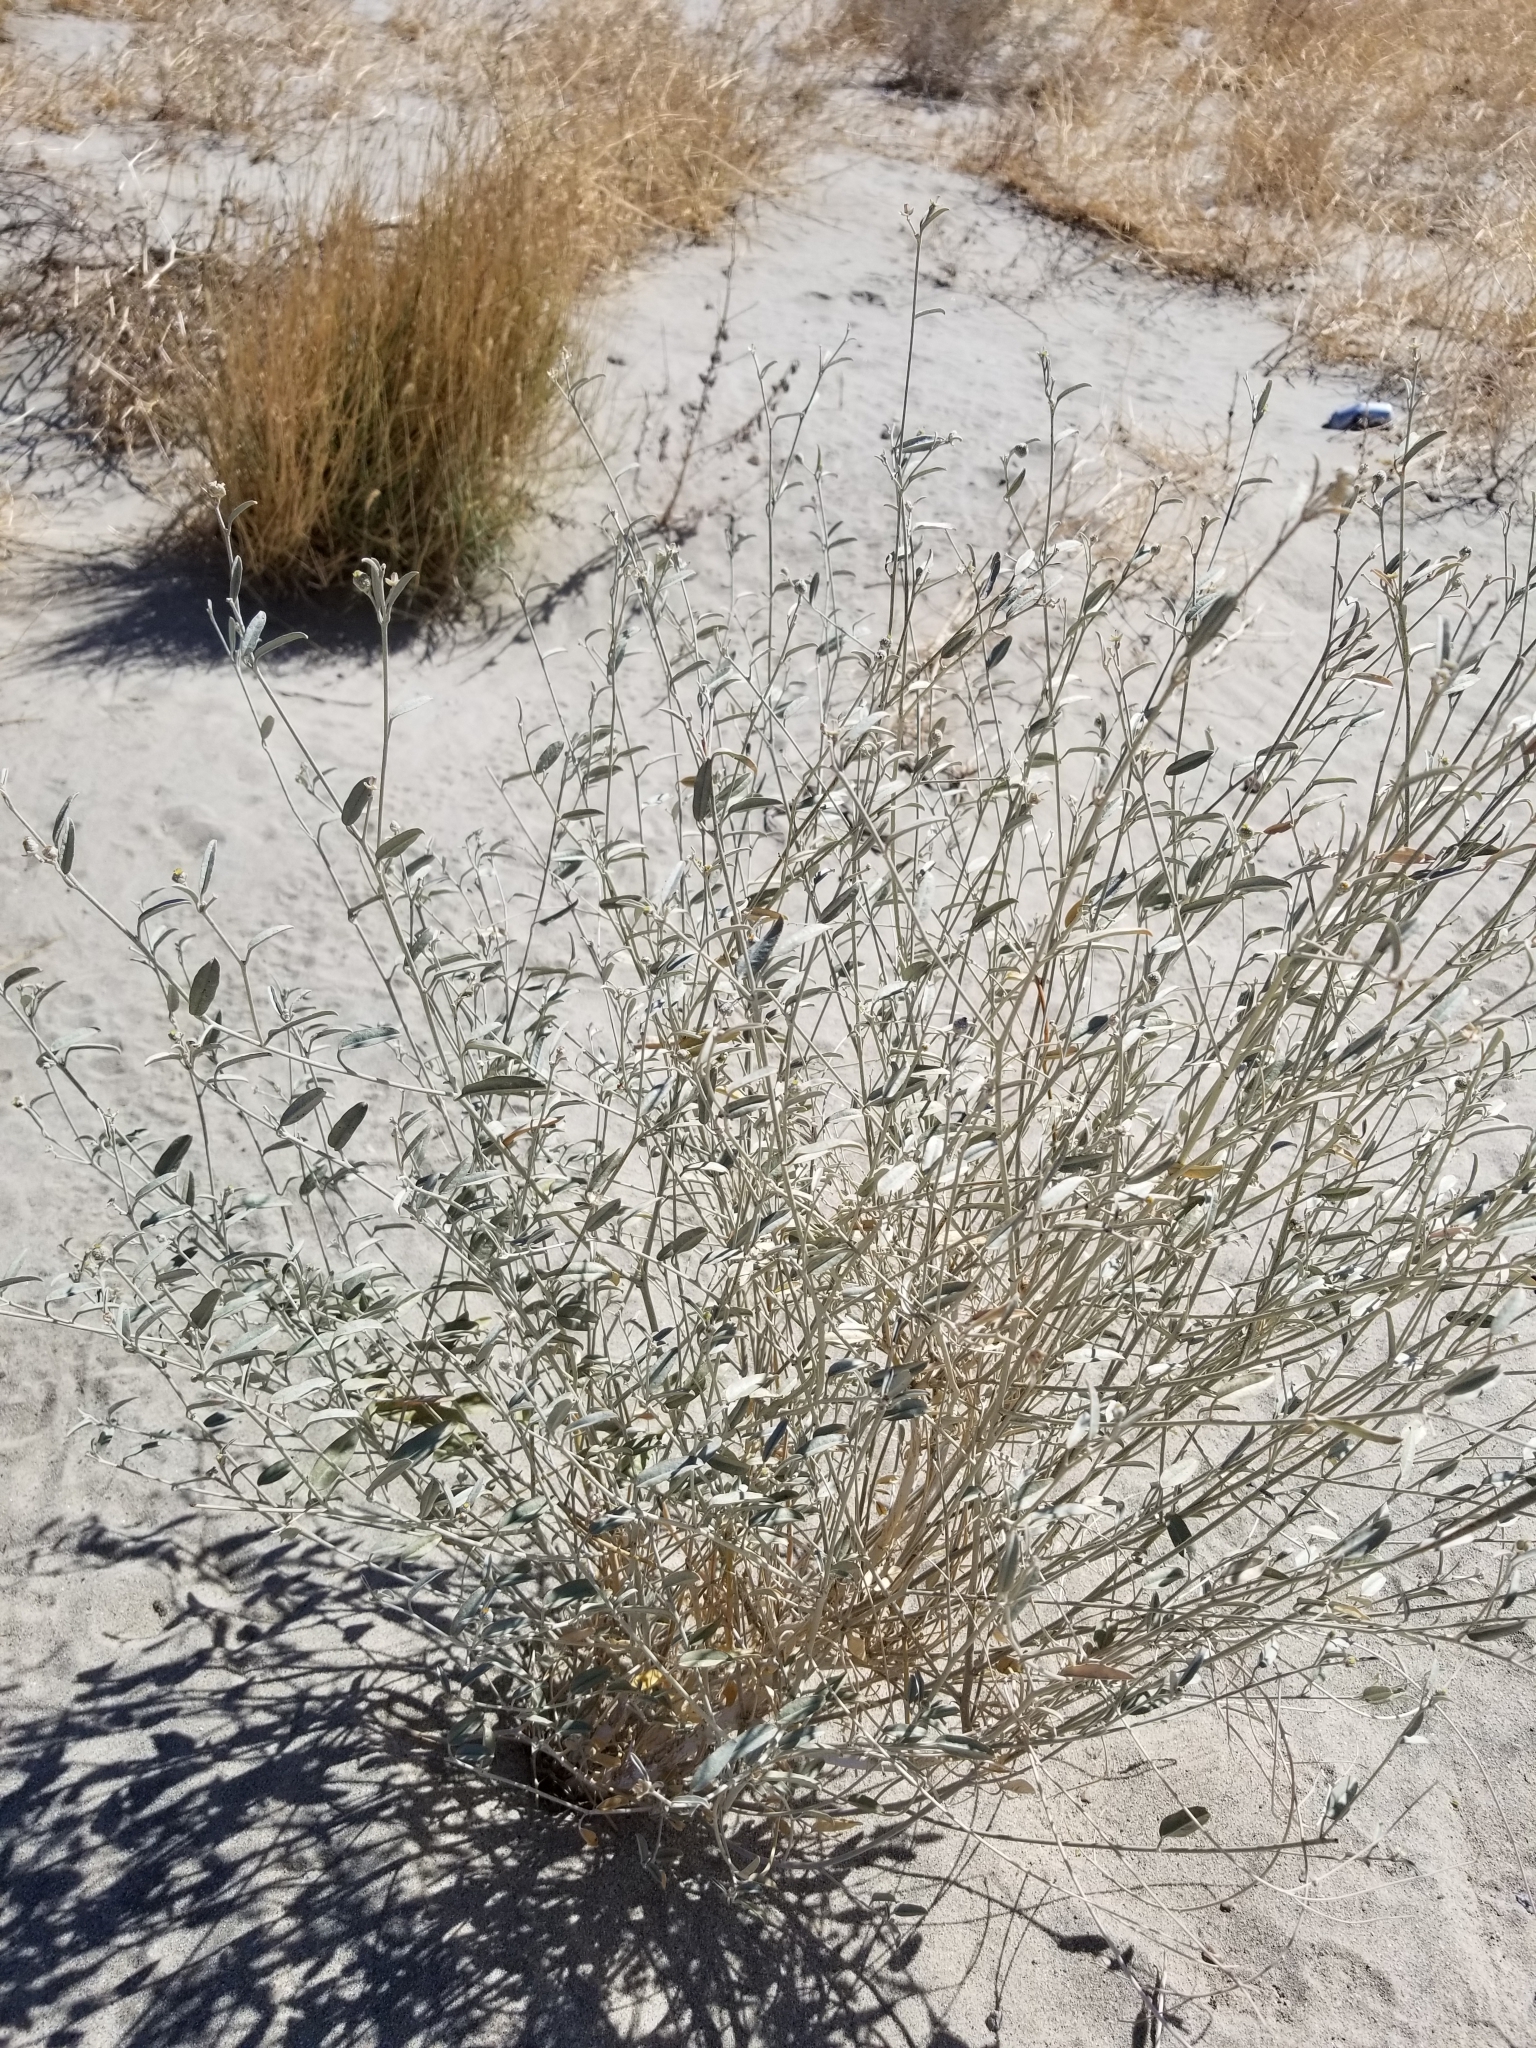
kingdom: Plantae
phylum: Tracheophyta
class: Magnoliopsida
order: Malpighiales
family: Euphorbiaceae
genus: Croton
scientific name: Croton californicus
